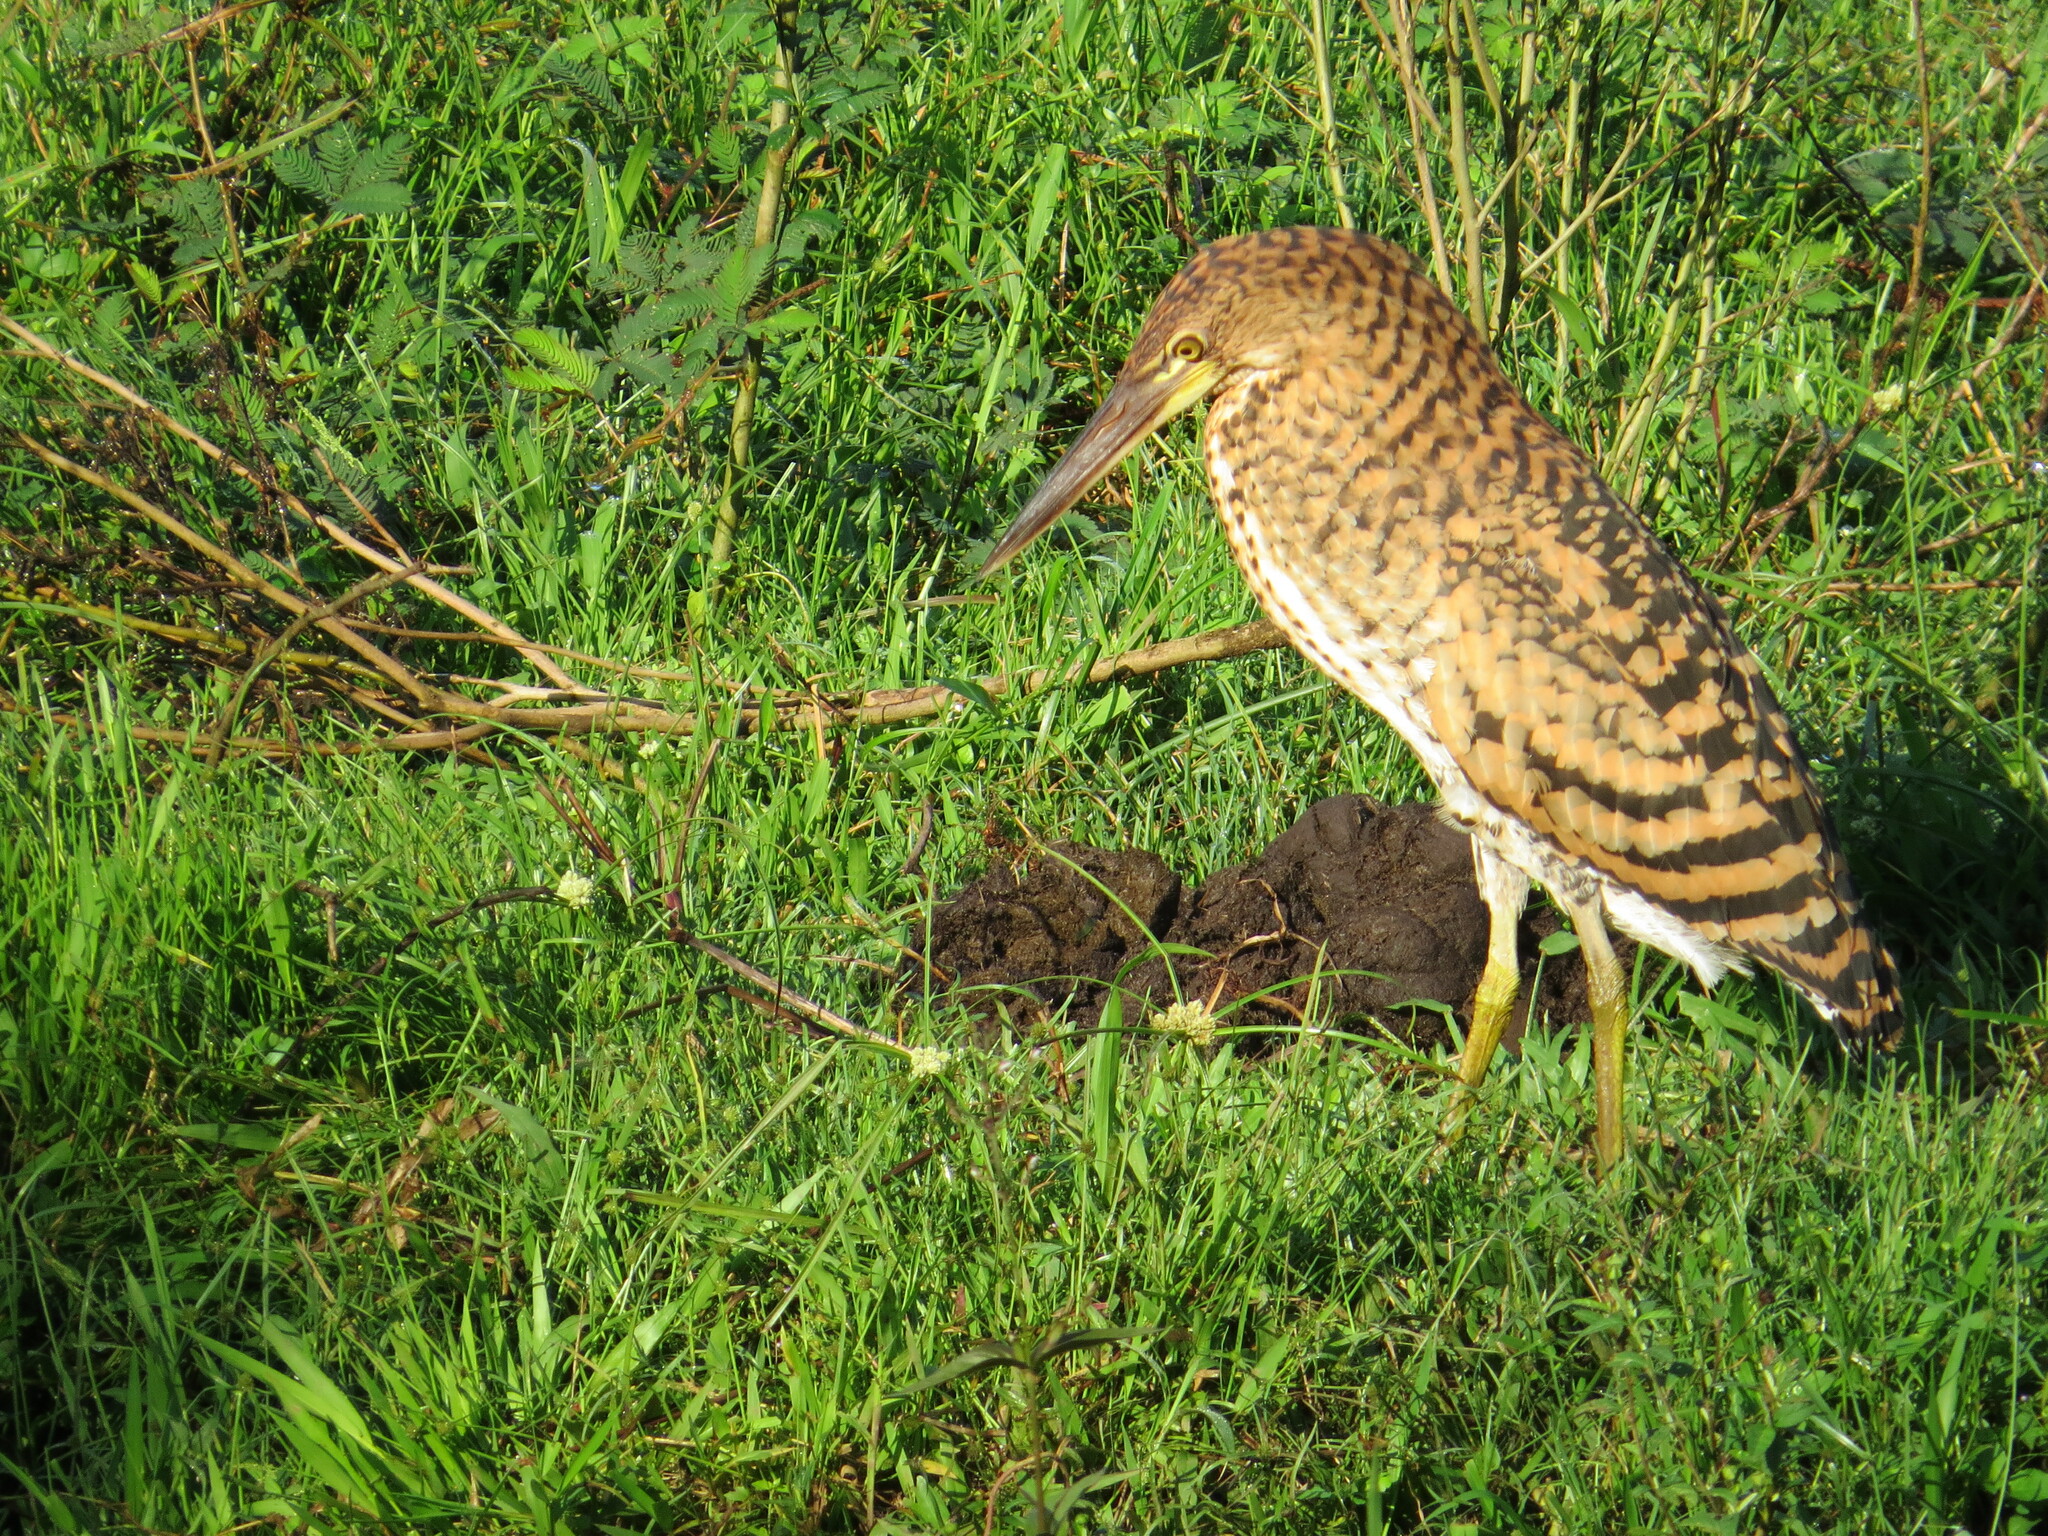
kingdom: Animalia
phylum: Chordata
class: Aves
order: Pelecaniformes
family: Ardeidae
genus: Tigrisoma
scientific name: Tigrisoma lineatum
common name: Rufescent tiger-heron
